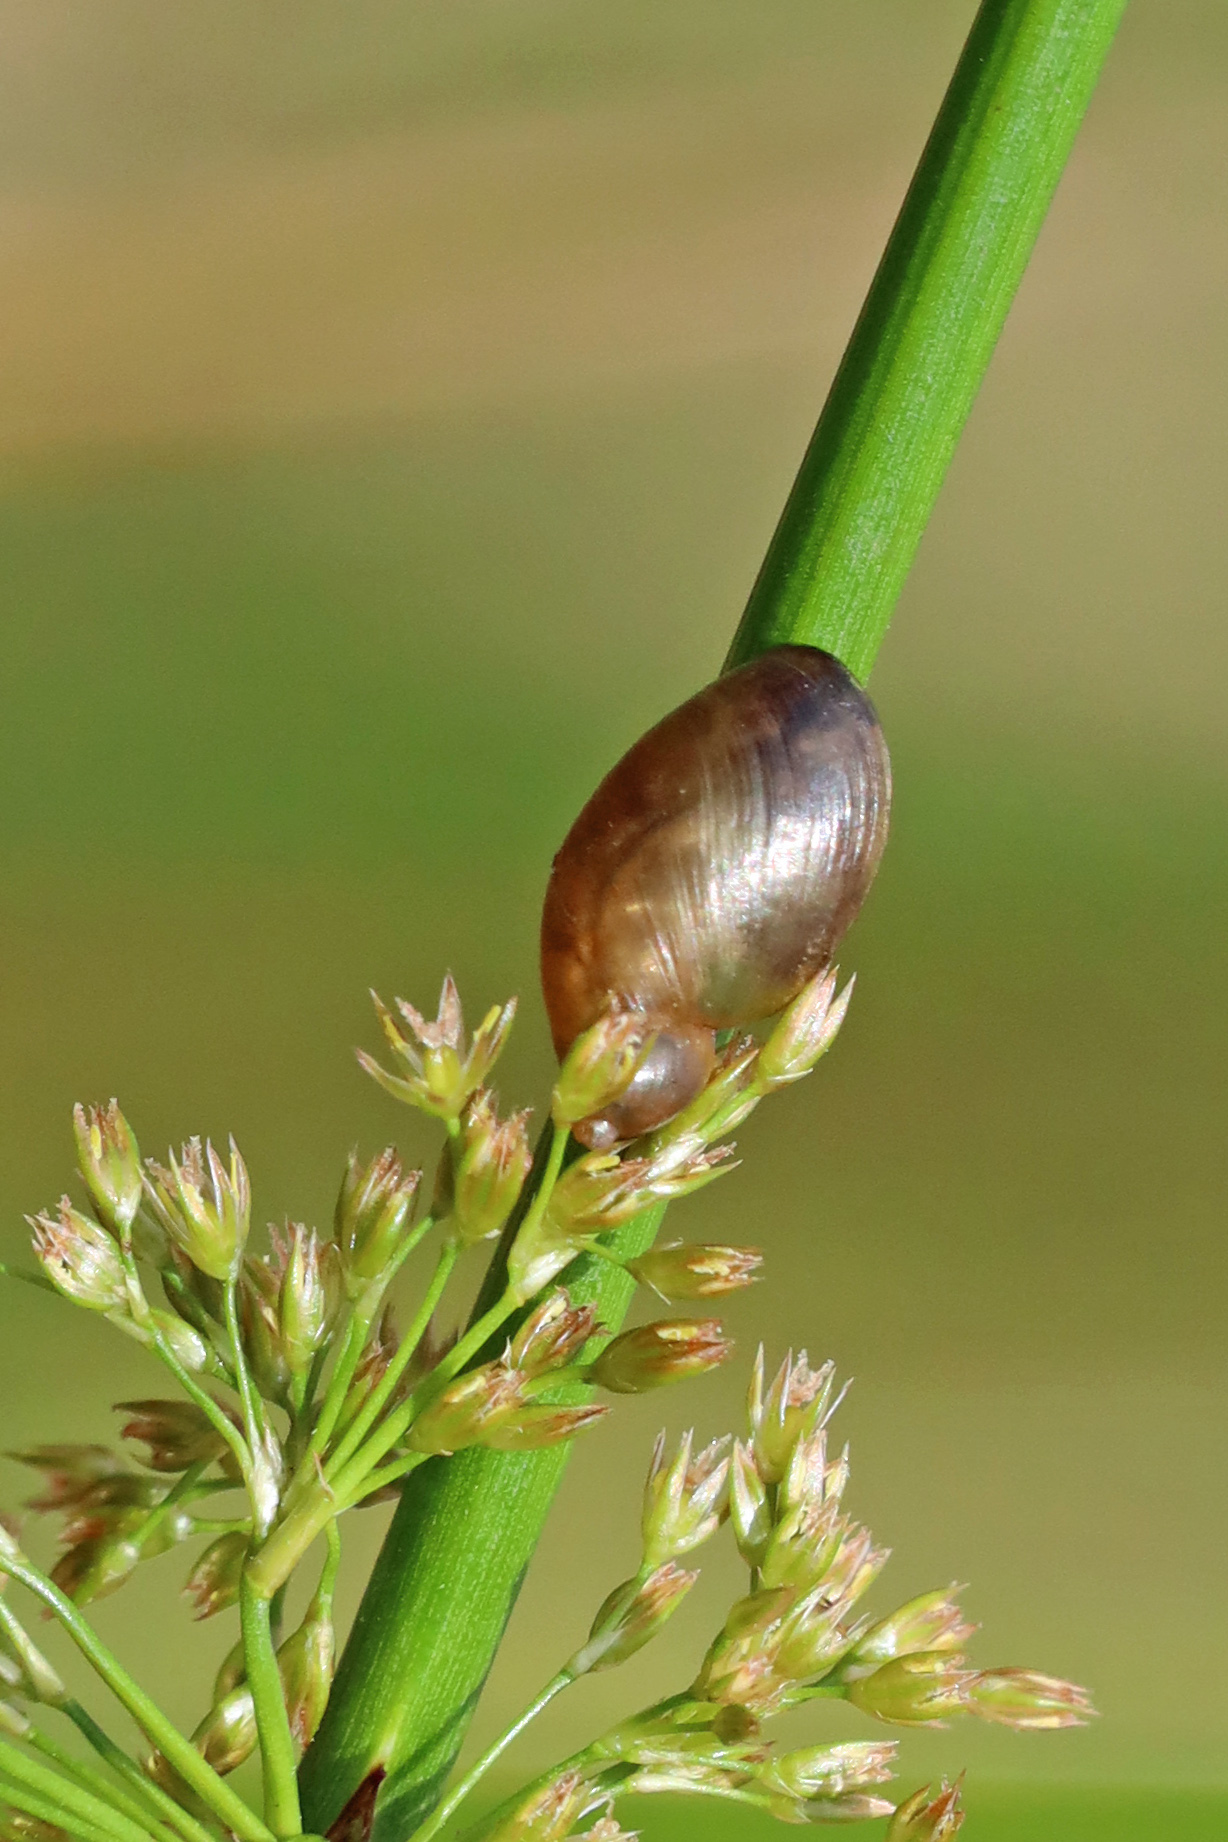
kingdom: Animalia
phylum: Mollusca
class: Gastropoda
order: Stylommatophora
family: Succineidae
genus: Succinea
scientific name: Succinea putris
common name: European ambersnail
